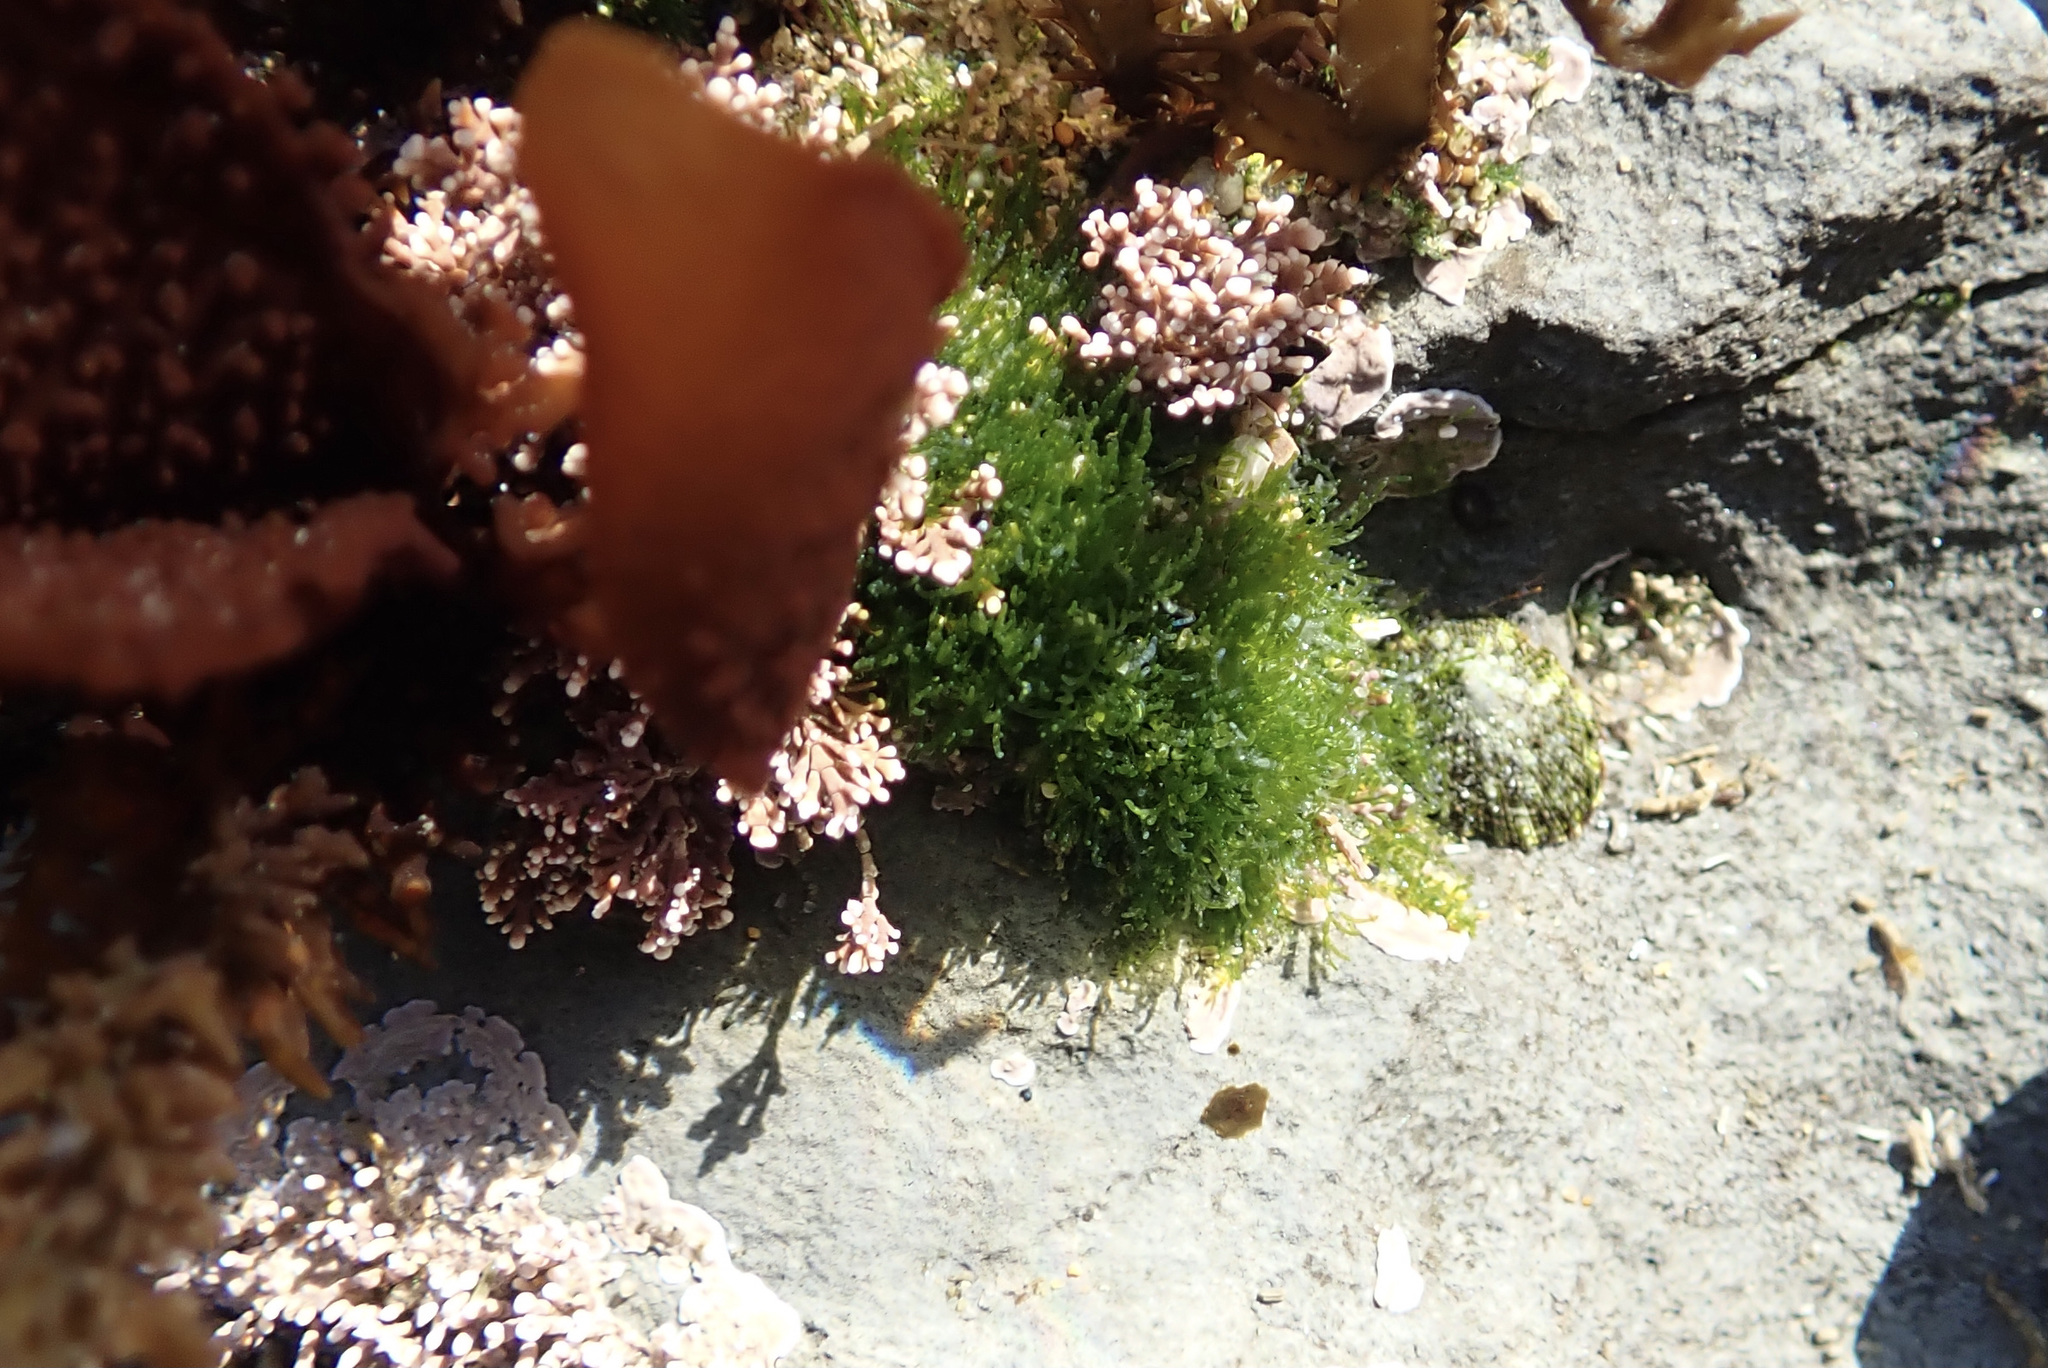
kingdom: Plantae
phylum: Chlorophyta
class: Ulvophyceae
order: Cladophorales
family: Cladophoraceae
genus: Cladophora
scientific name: Cladophora columbiana
